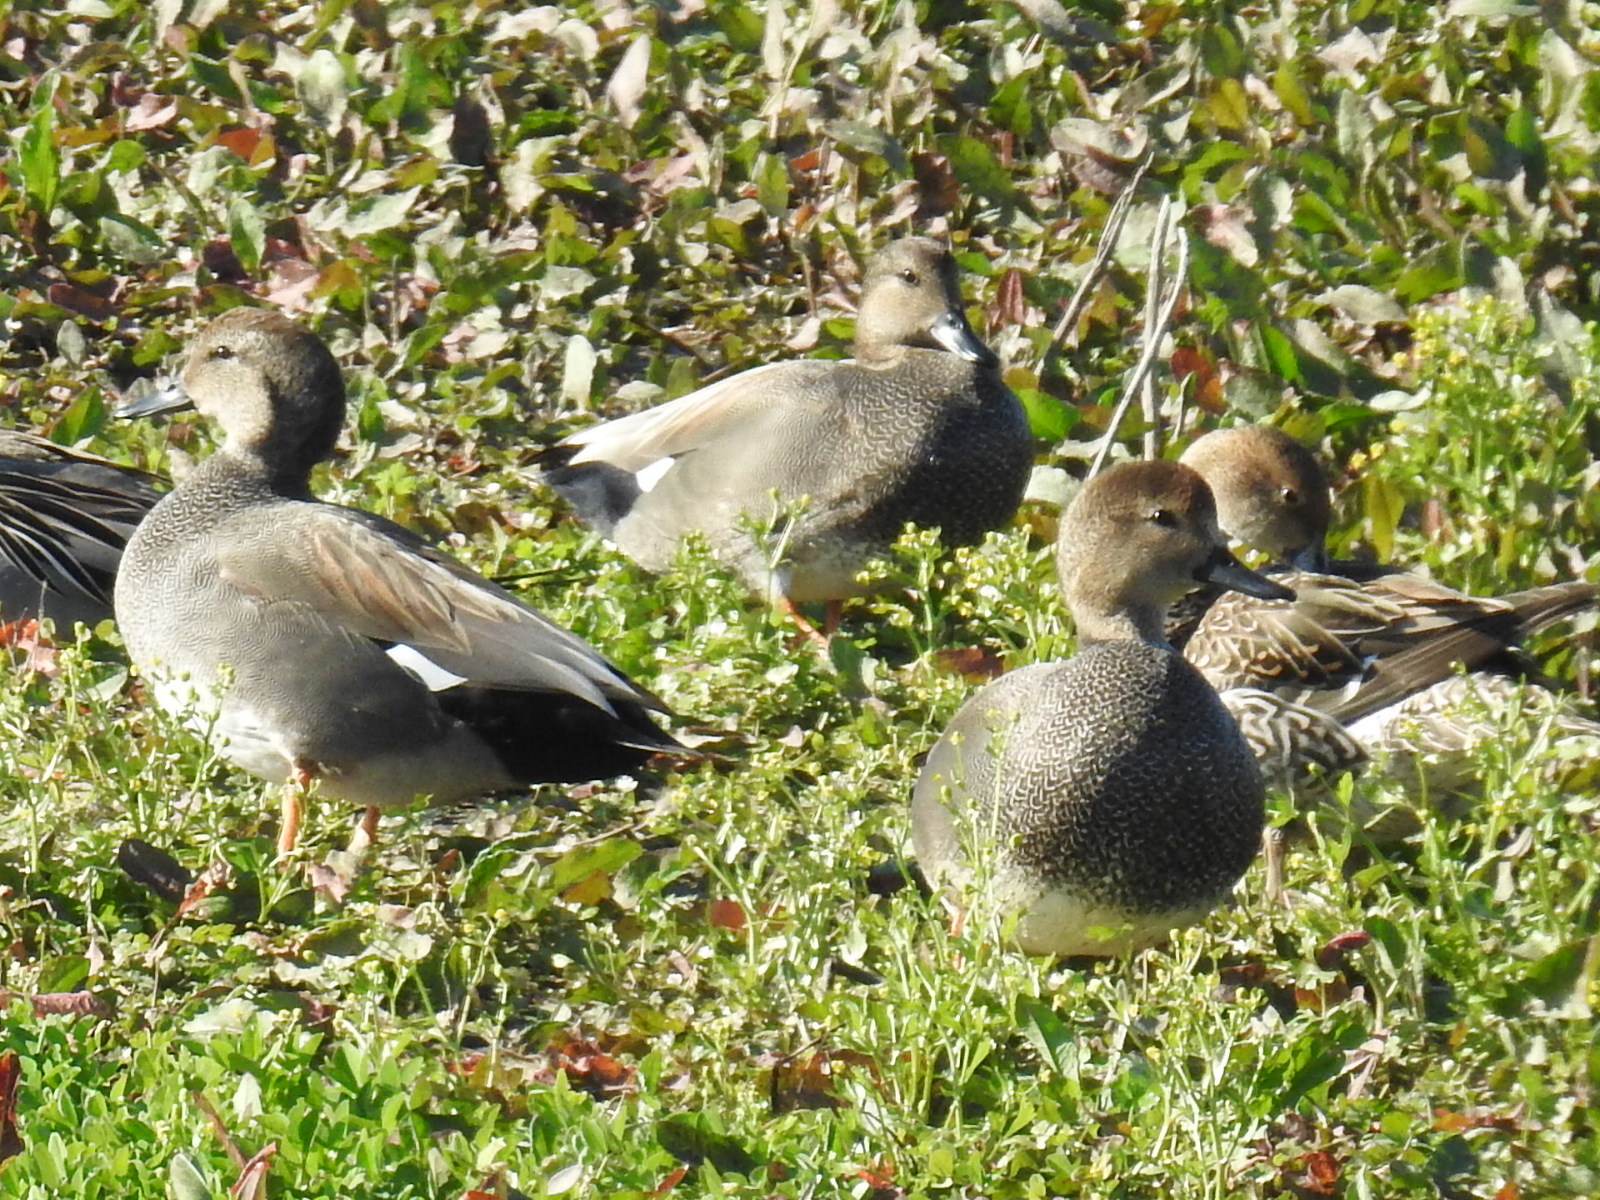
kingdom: Animalia
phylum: Chordata
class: Aves
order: Anseriformes
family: Anatidae
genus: Mareca
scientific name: Mareca strepera
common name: Gadwall
